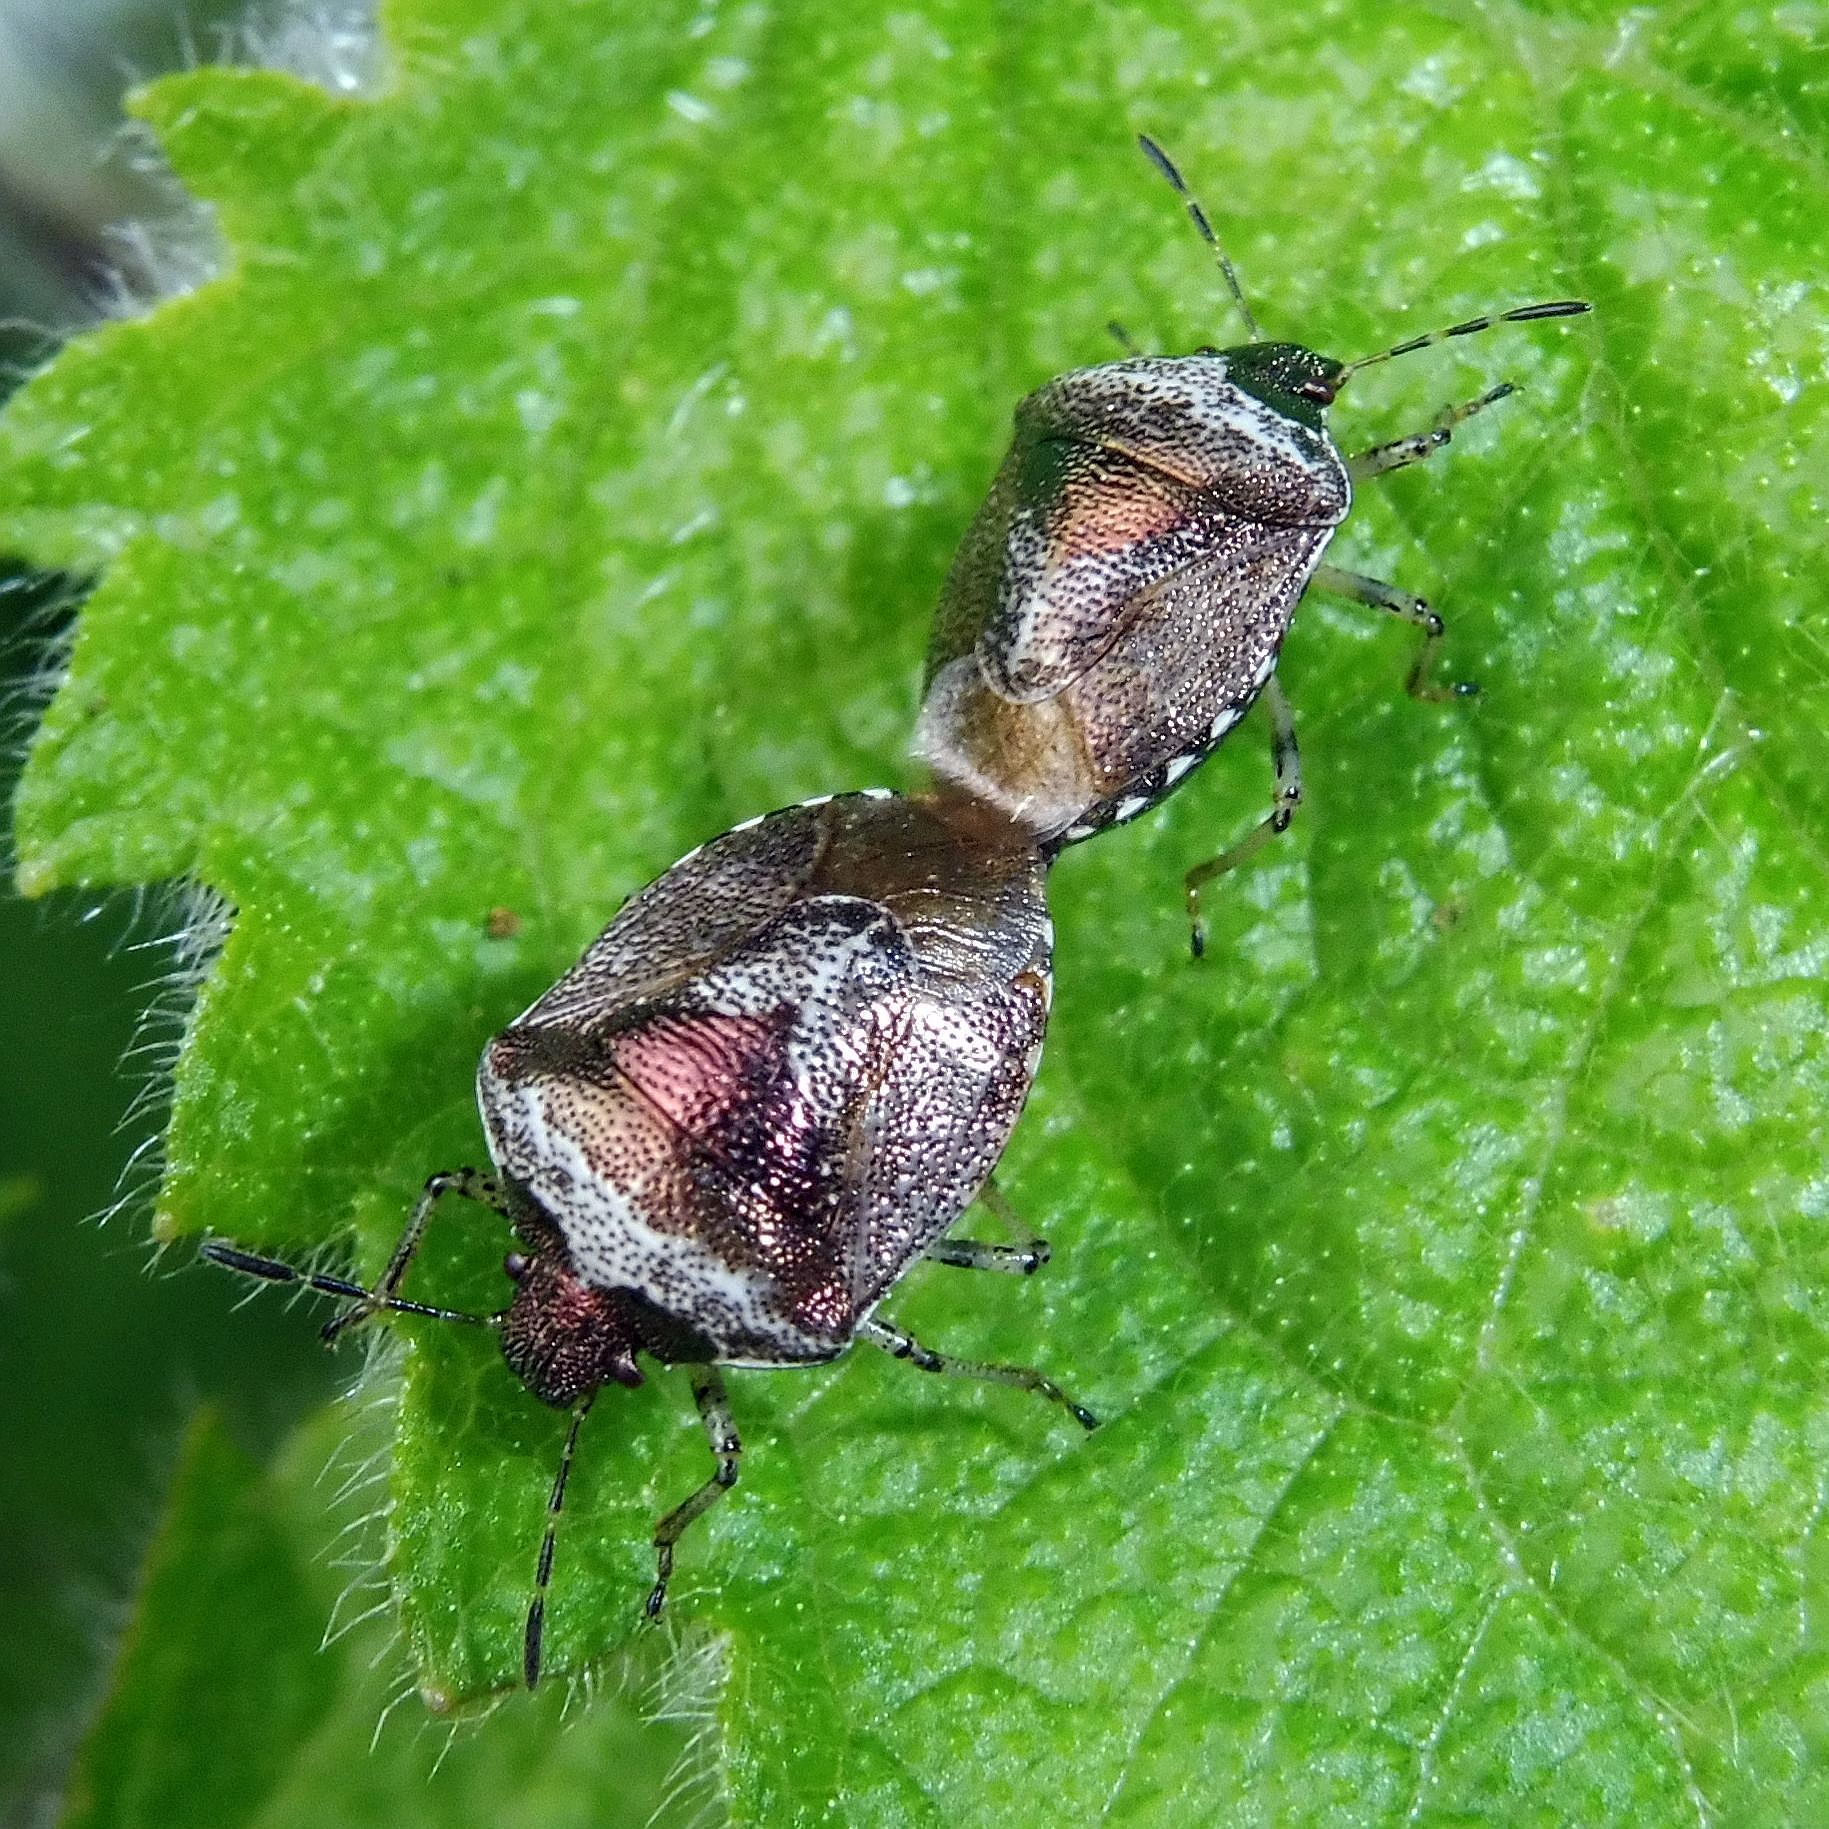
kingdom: Animalia
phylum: Arthropoda
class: Insecta
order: Hemiptera
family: Pentatomidae
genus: Eysarcoris
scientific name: Eysarcoris venustissimus
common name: Woundwort shieldbug
